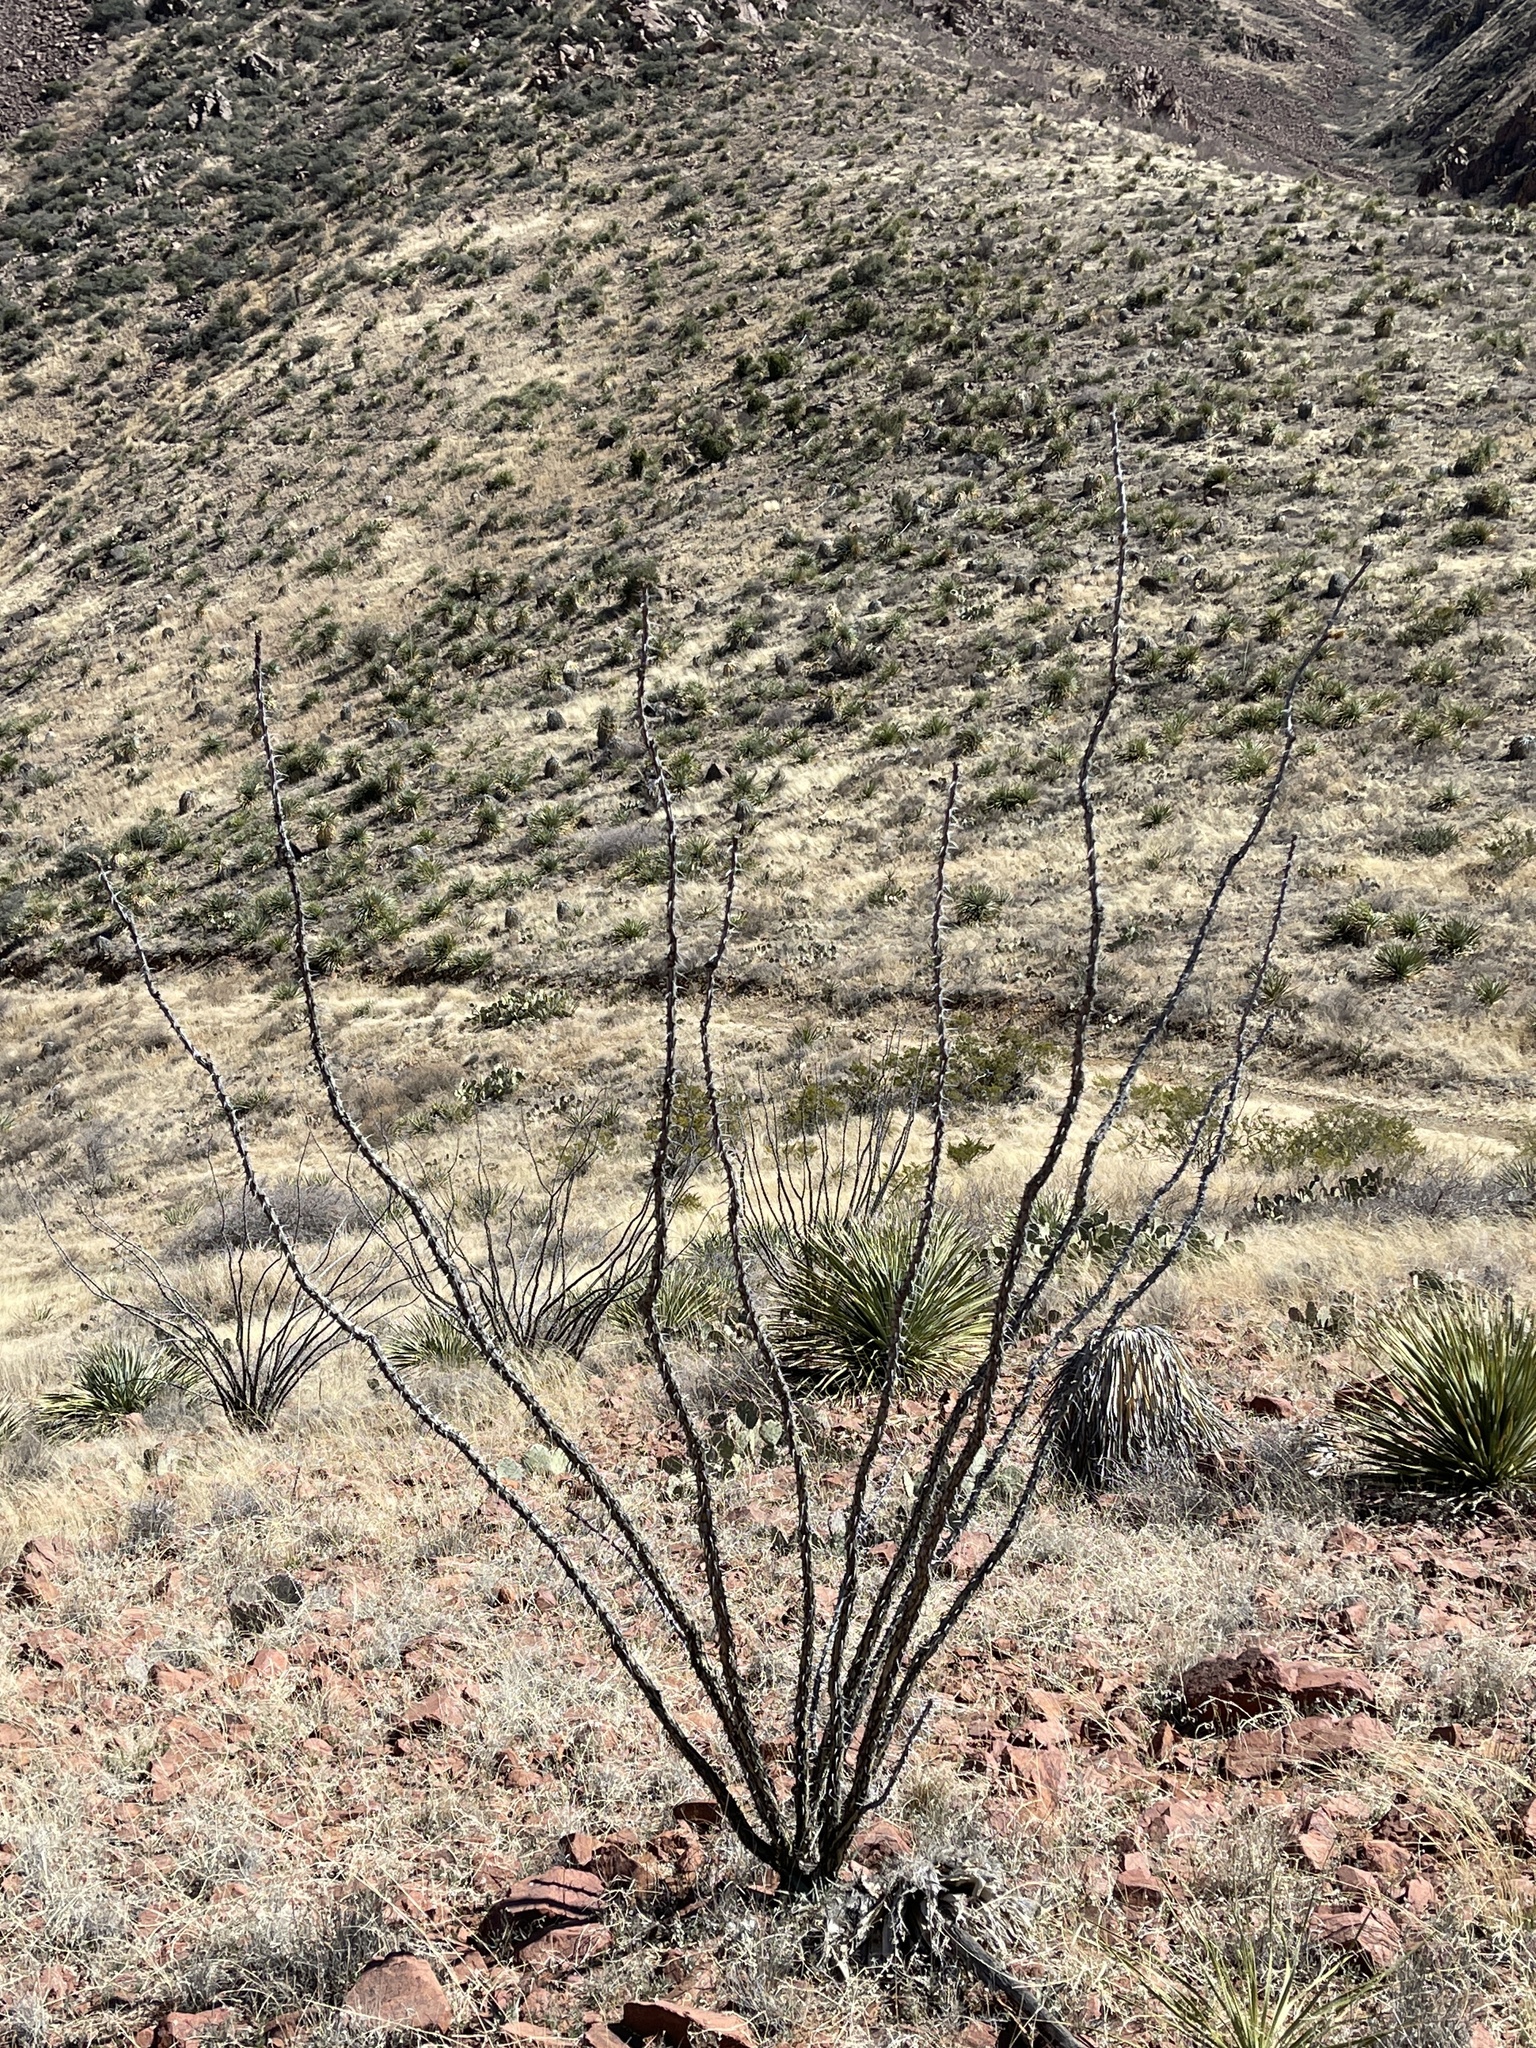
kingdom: Plantae
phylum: Tracheophyta
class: Magnoliopsida
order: Ericales
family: Fouquieriaceae
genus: Fouquieria
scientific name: Fouquieria splendens
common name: Vine-cactus
